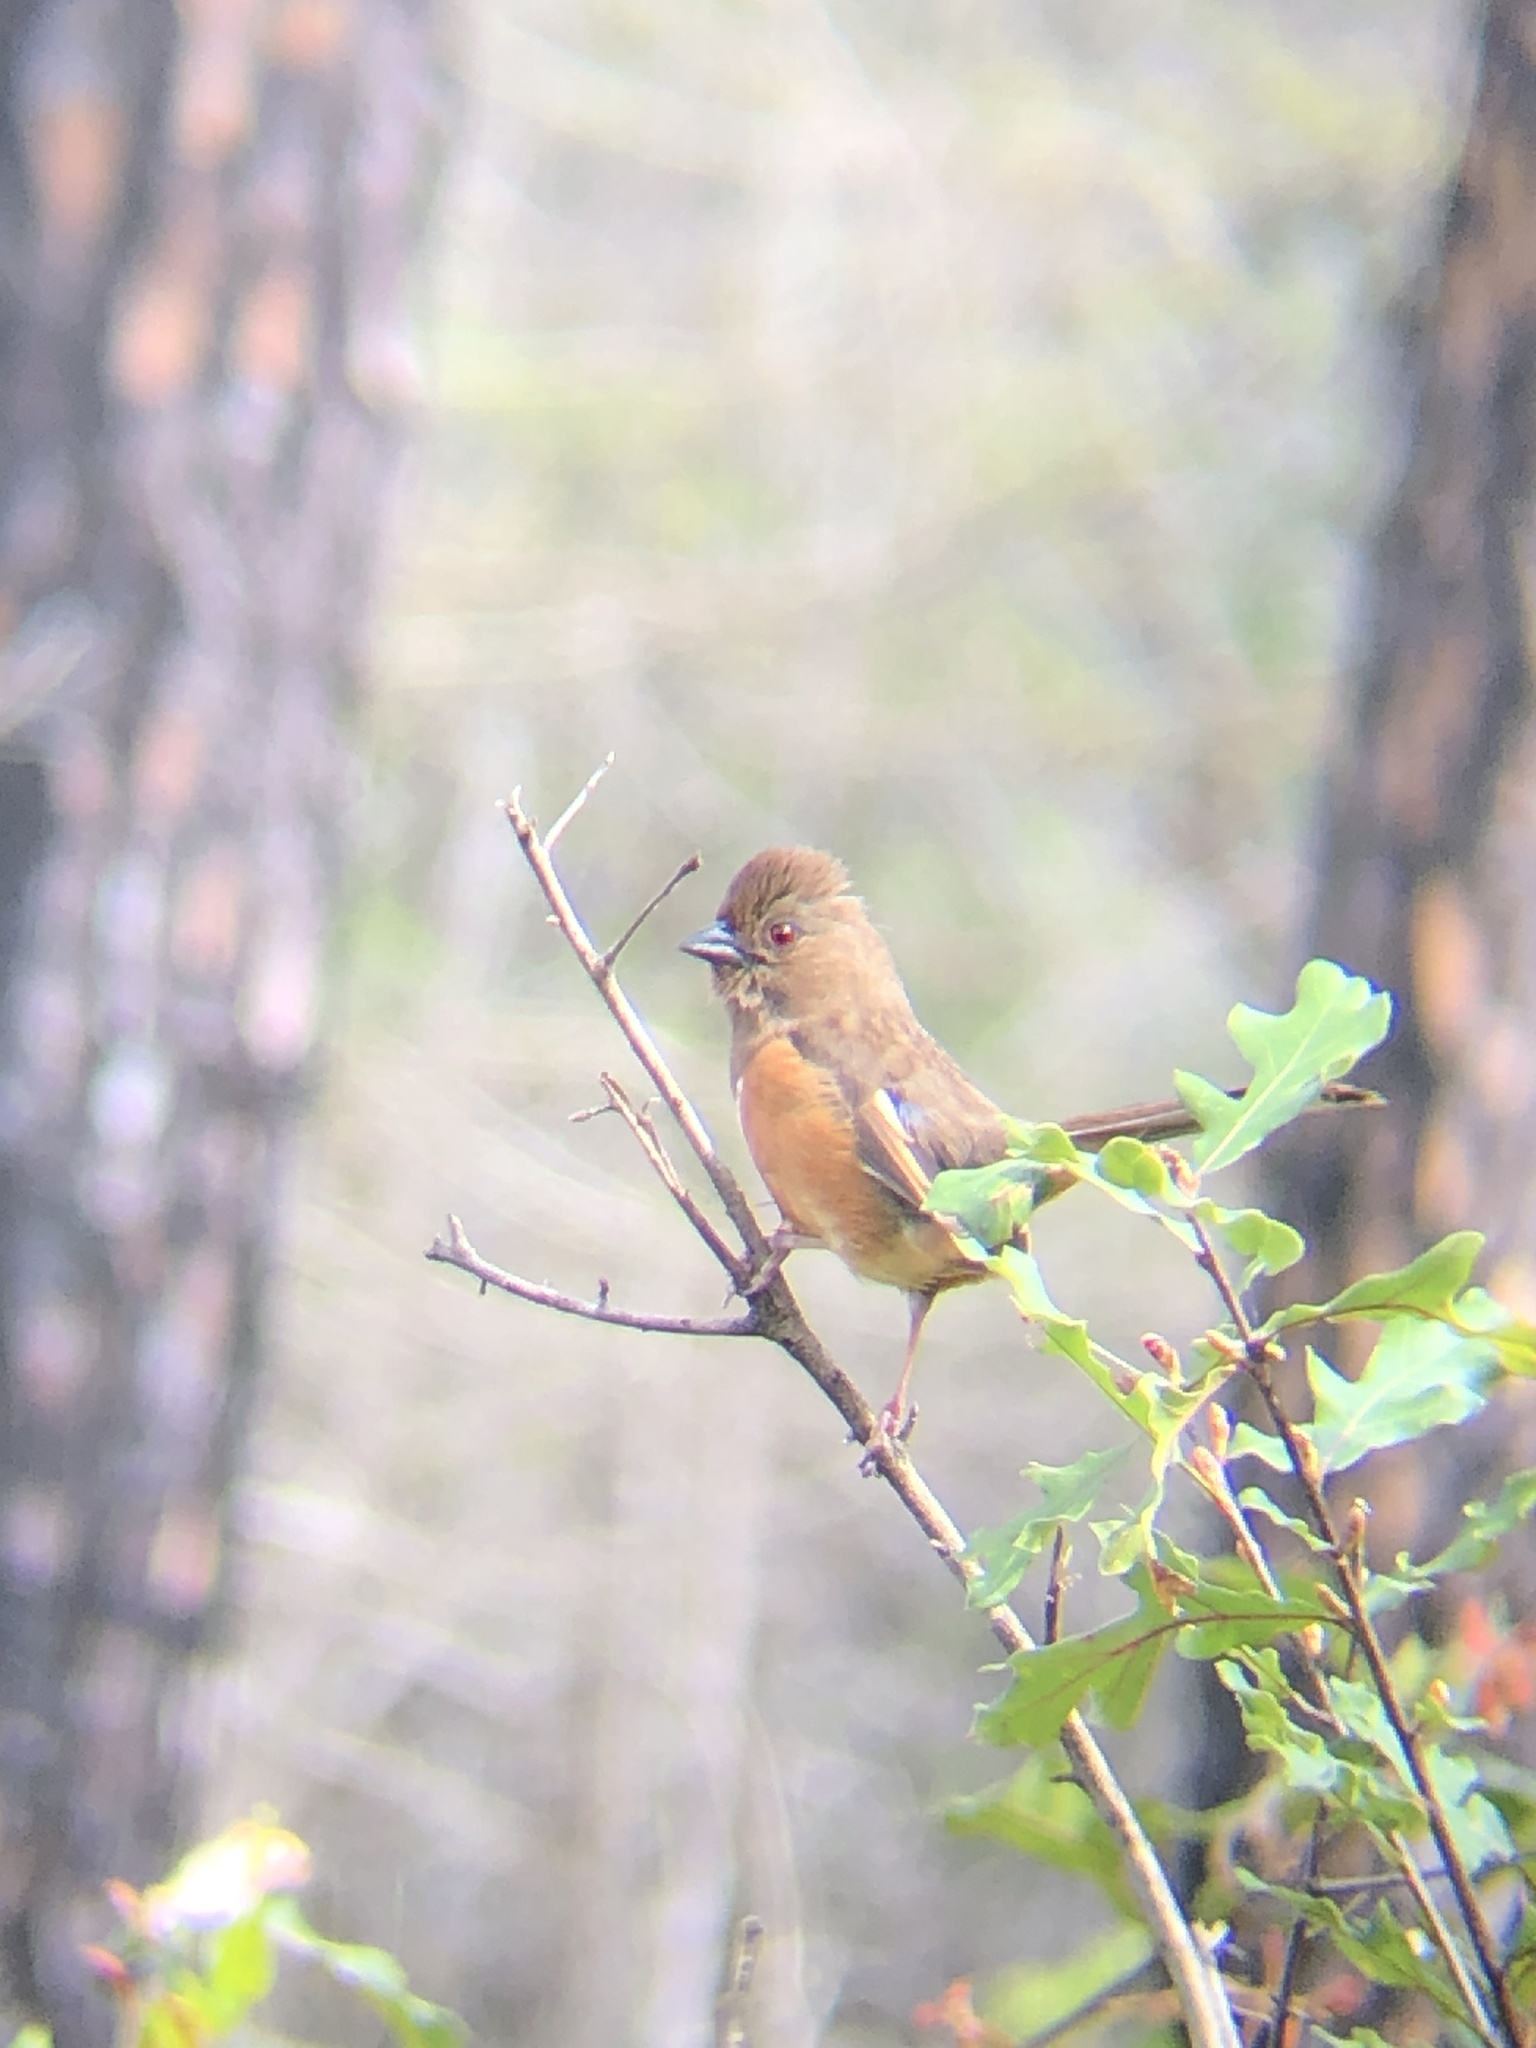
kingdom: Animalia
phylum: Chordata
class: Aves
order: Passeriformes
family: Passerellidae
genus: Pipilo
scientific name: Pipilo erythrophthalmus
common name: Eastern towhee
